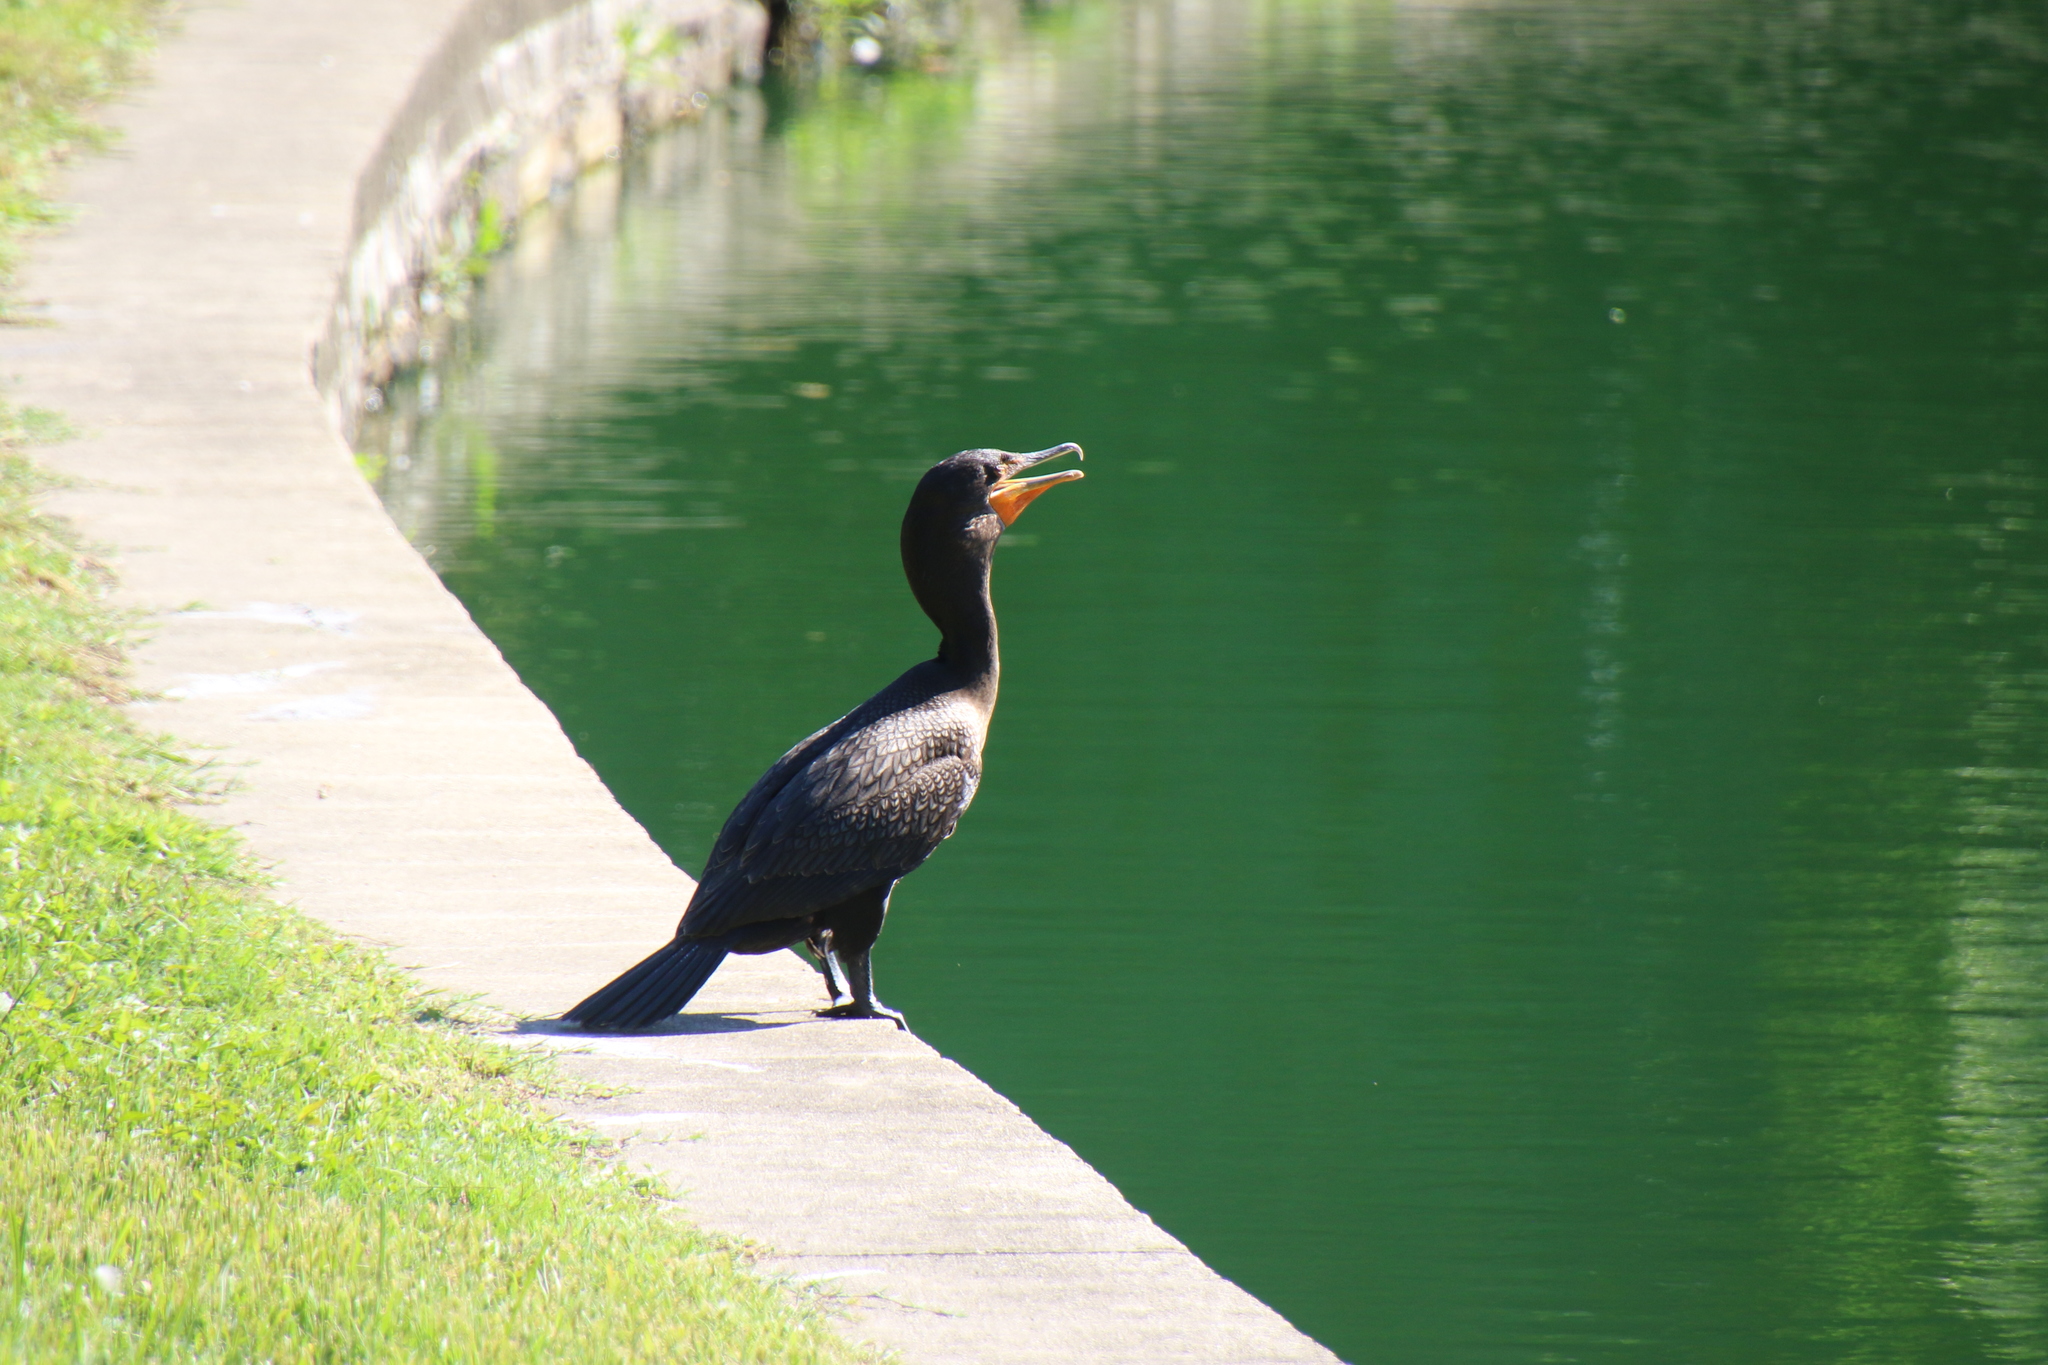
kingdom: Animalia
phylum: Chordata
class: Aves
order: Suliformes
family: Phalacrocoracidae
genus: Phalacrocorax
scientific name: Phalacrocorax auritus
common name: Double-crested cormorant
